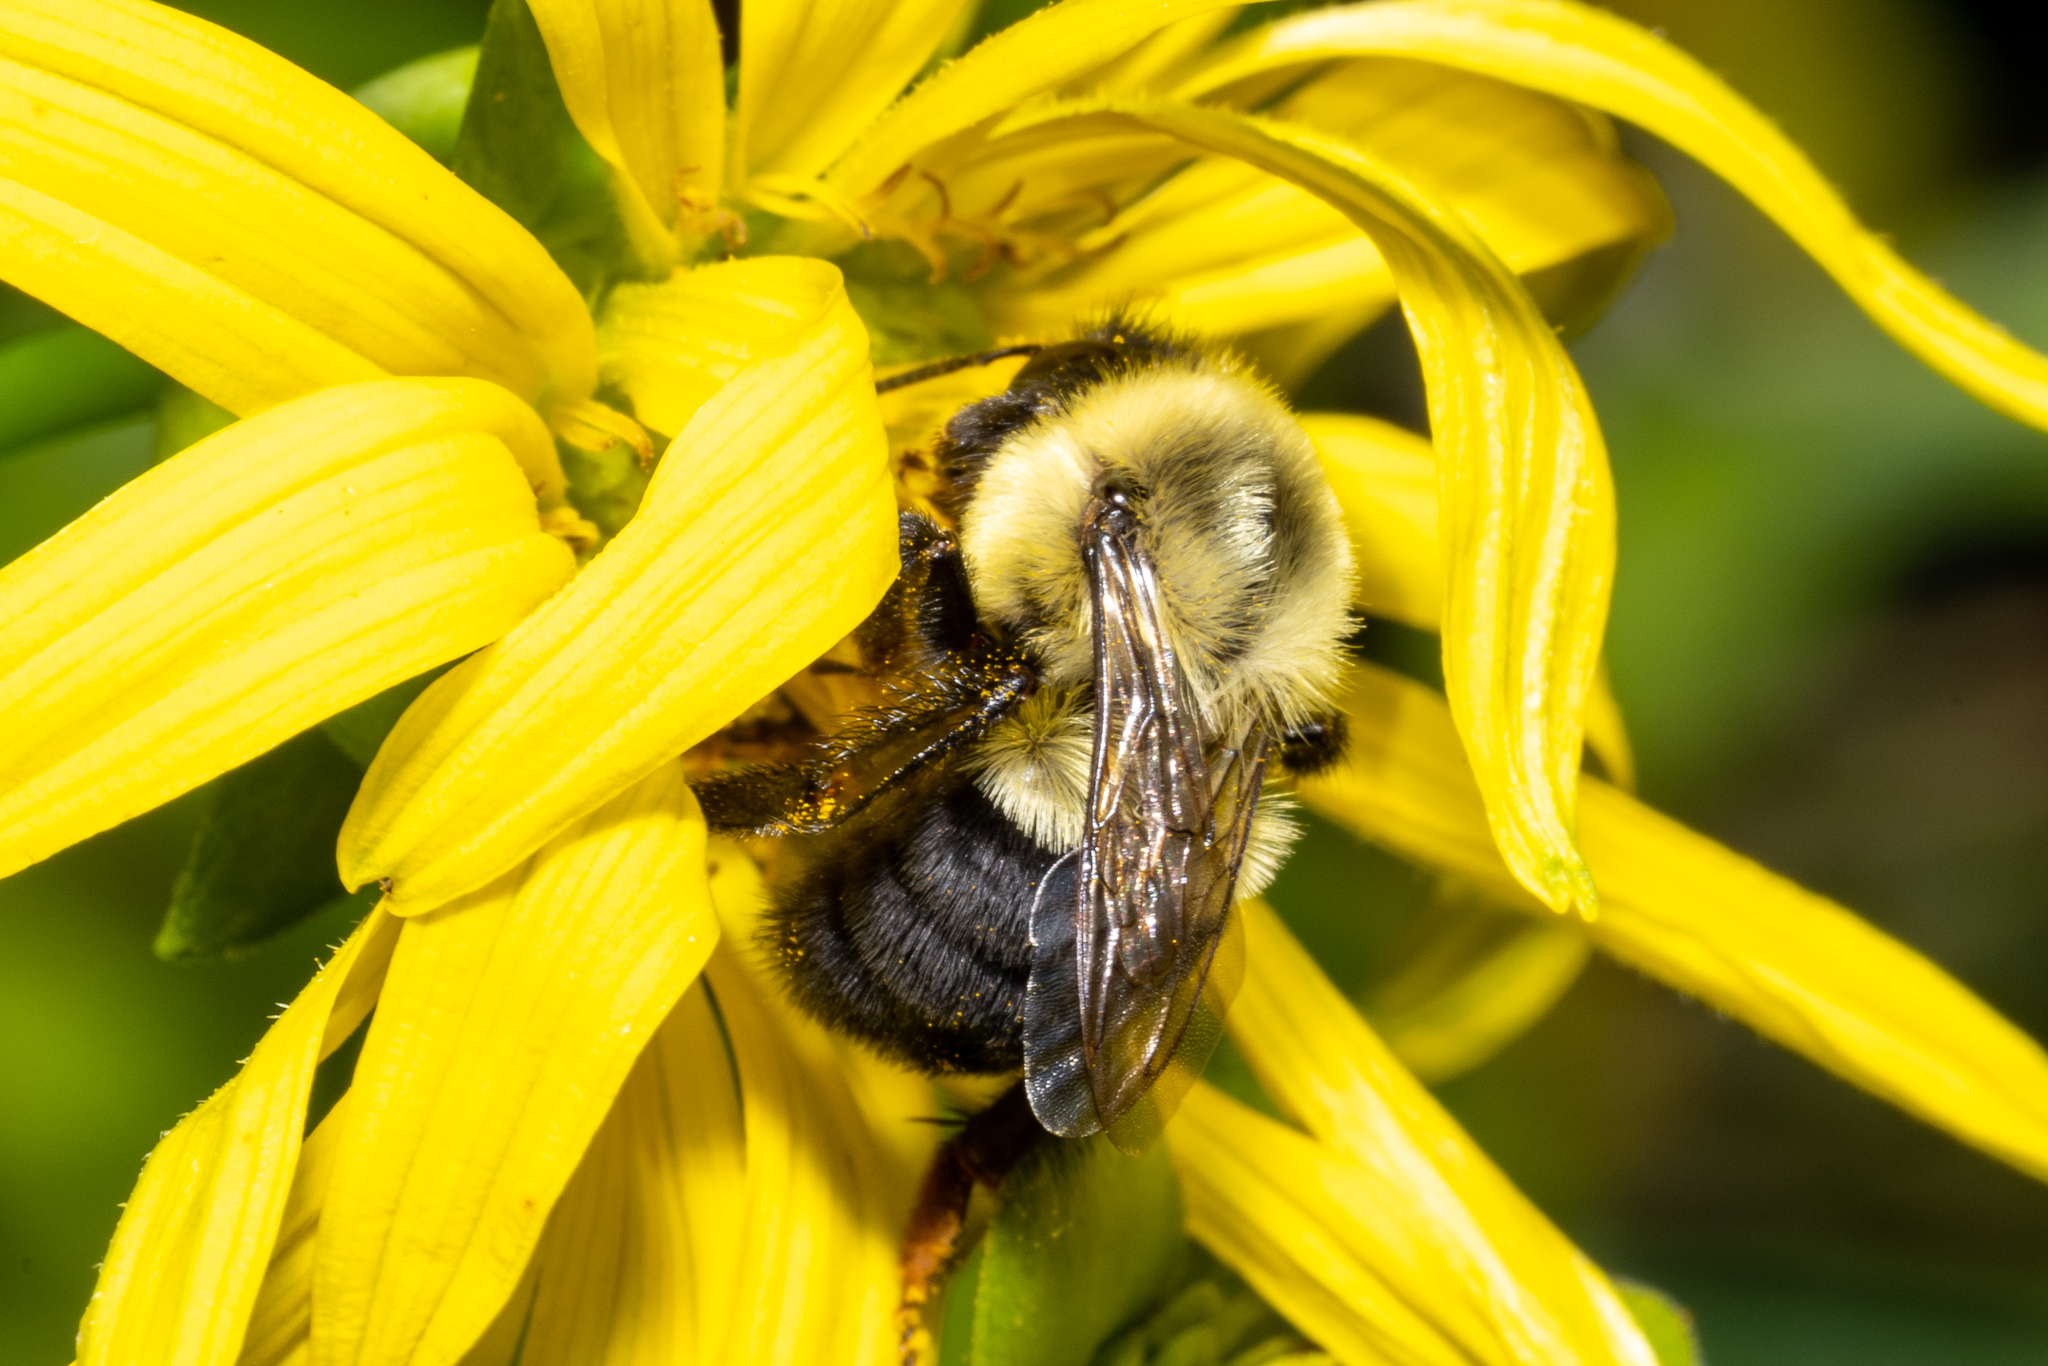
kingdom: Animalia
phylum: Arthropoda
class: Insecta
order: Hymenoptera
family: Apidae
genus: Bombus
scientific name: Bombus impatiens
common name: Common eastern bumble bee
